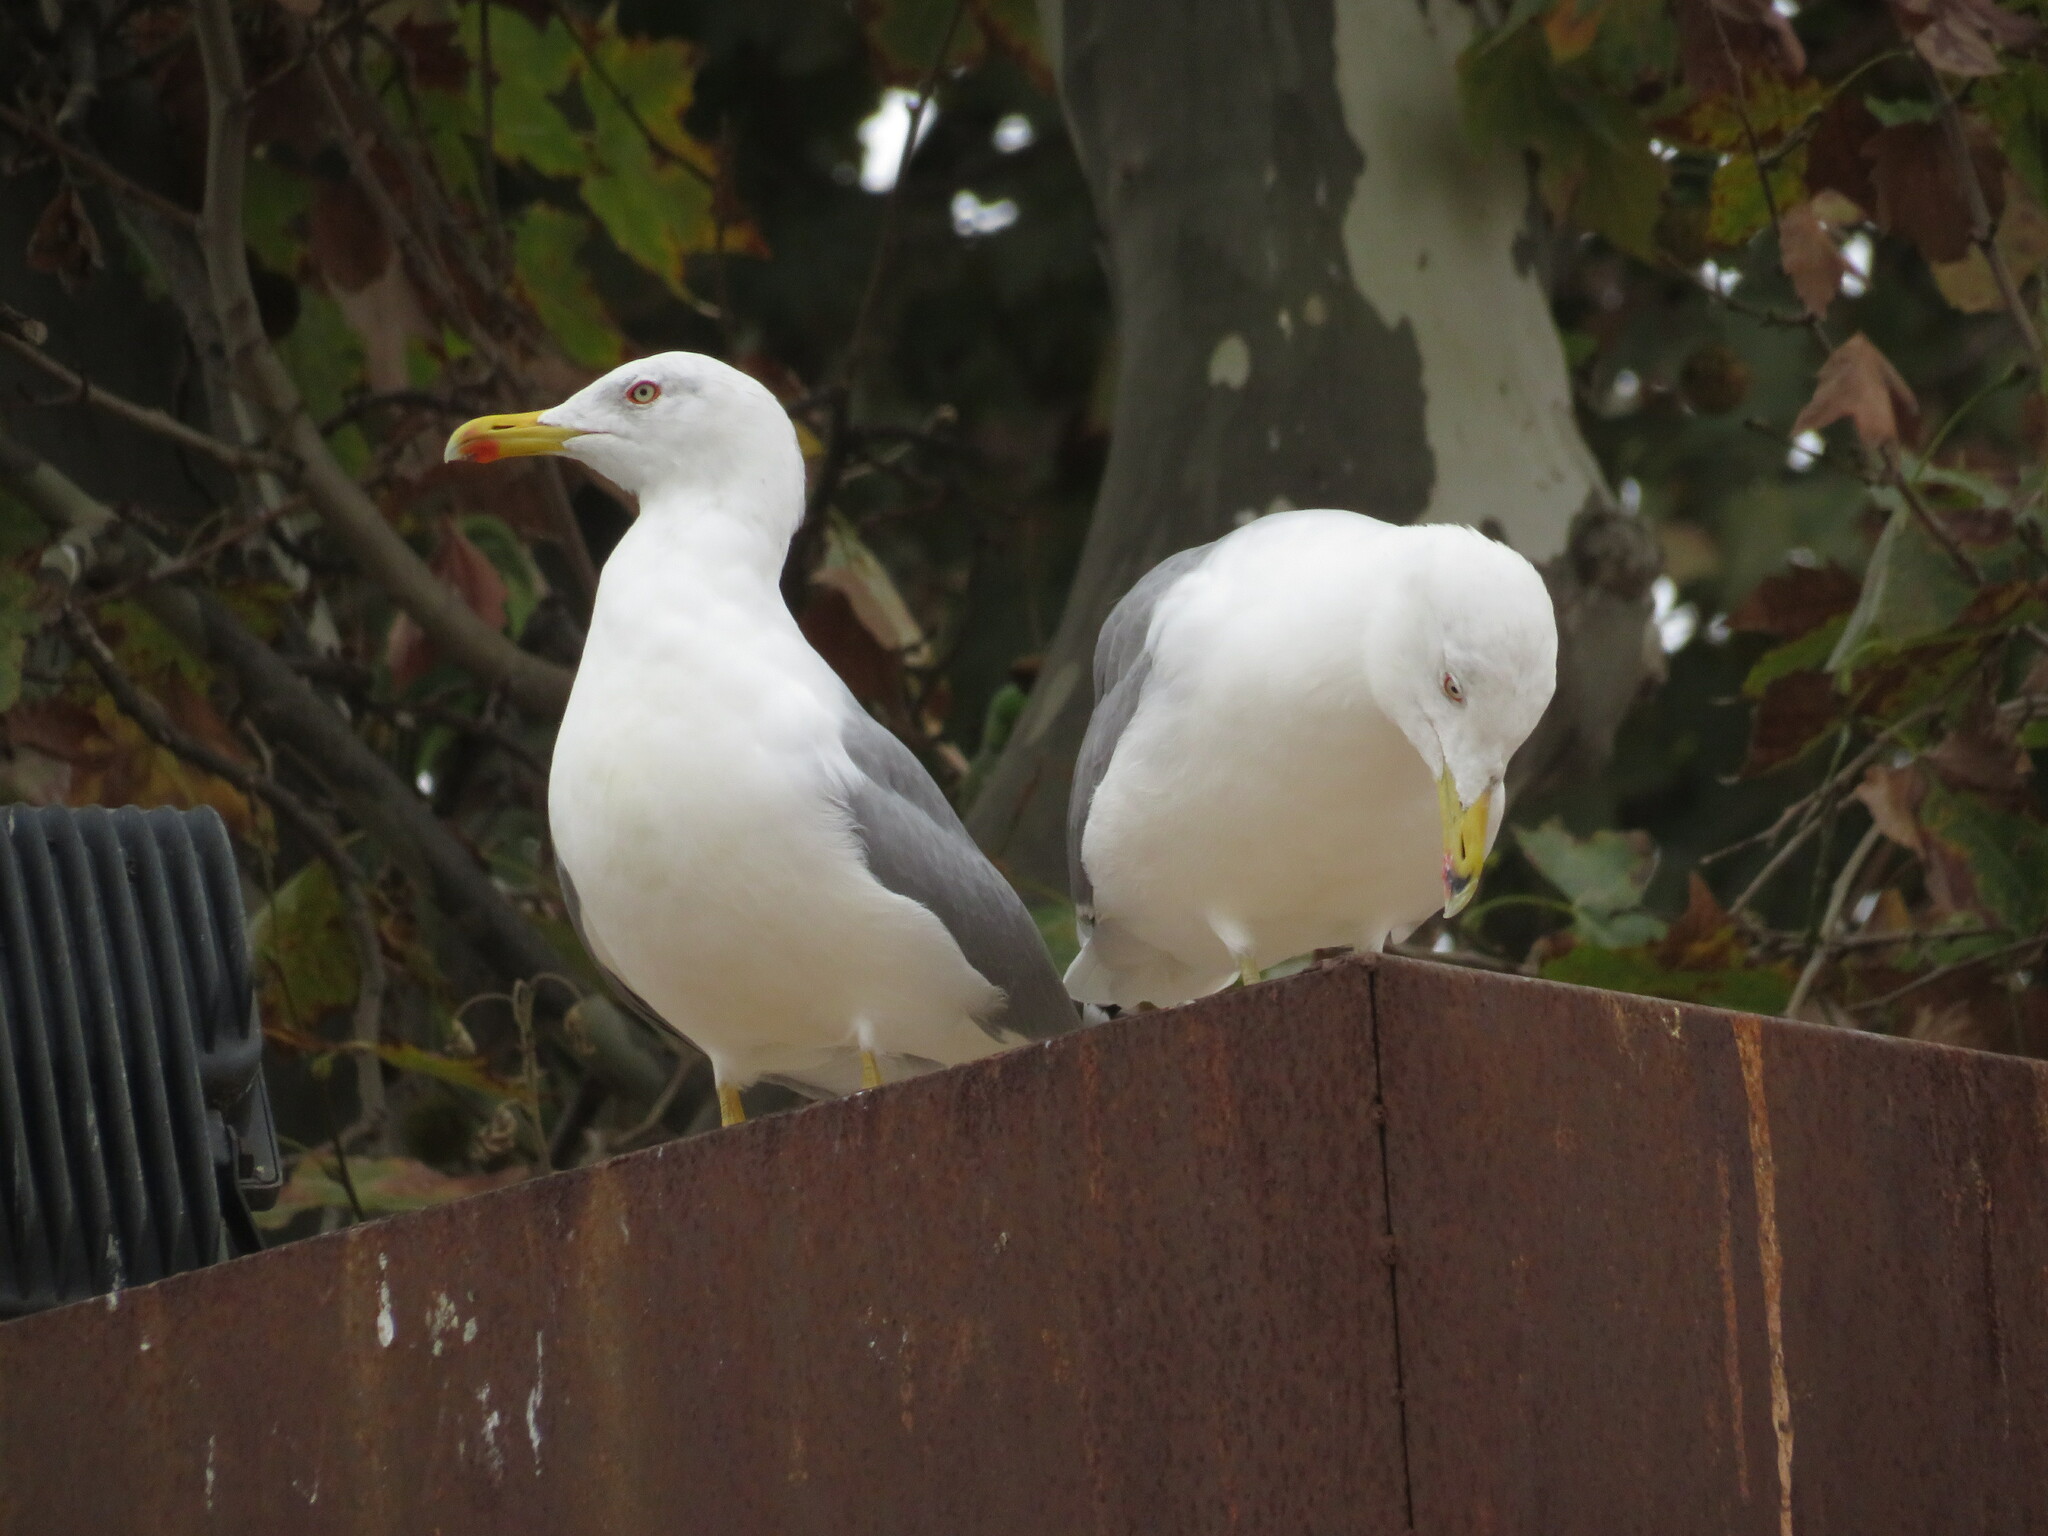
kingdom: Animalia
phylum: Chordata
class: Aves
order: Charadriiformes
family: Laridae
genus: Larus
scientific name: Larus michahellis
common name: Yellow-legged gull
